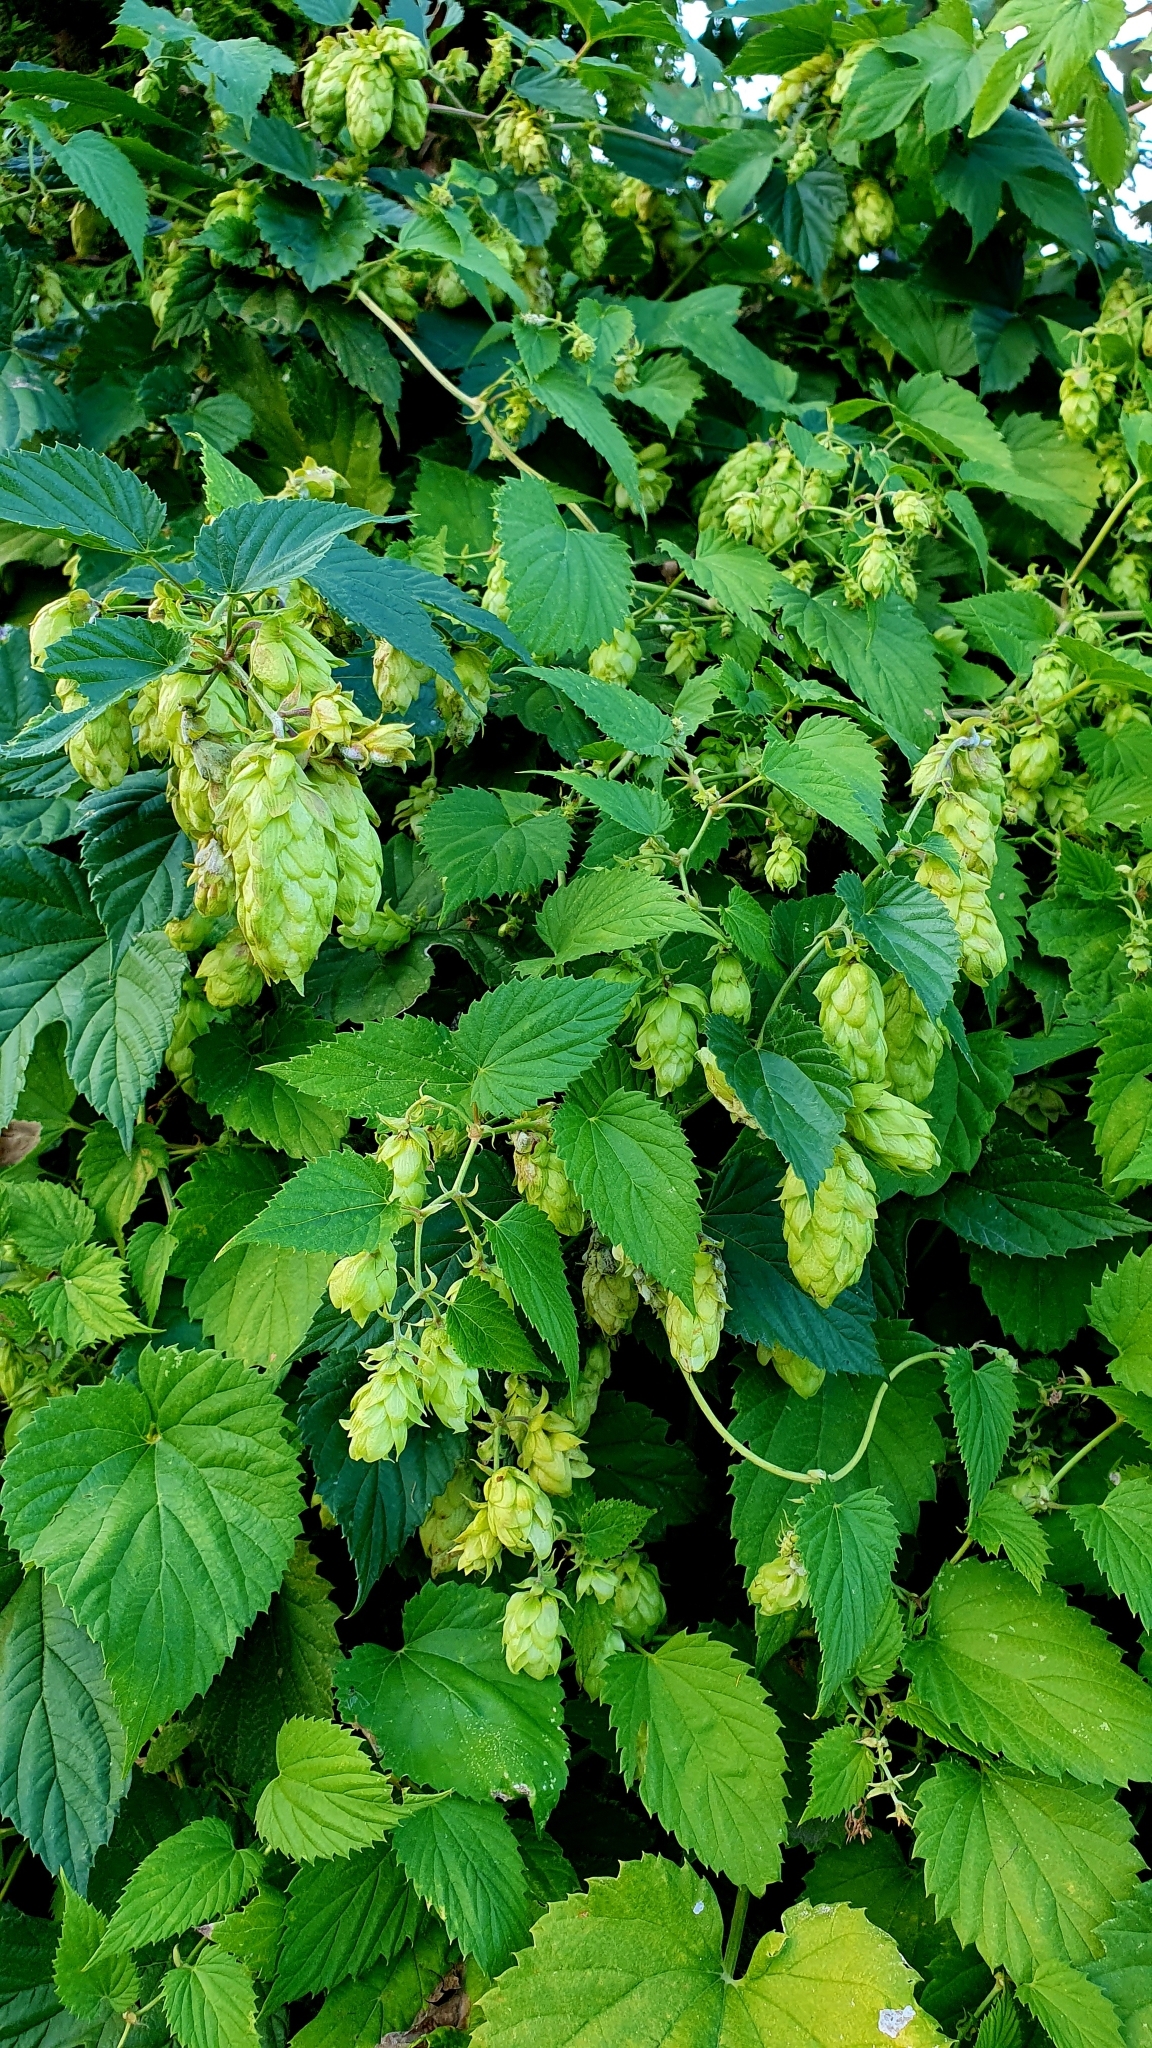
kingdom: Plantae
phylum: Tracheophyta
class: Magnoliopsida
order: Rosales
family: Cannabaceae
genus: Humulus
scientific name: Humulus lupulus
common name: Hop
